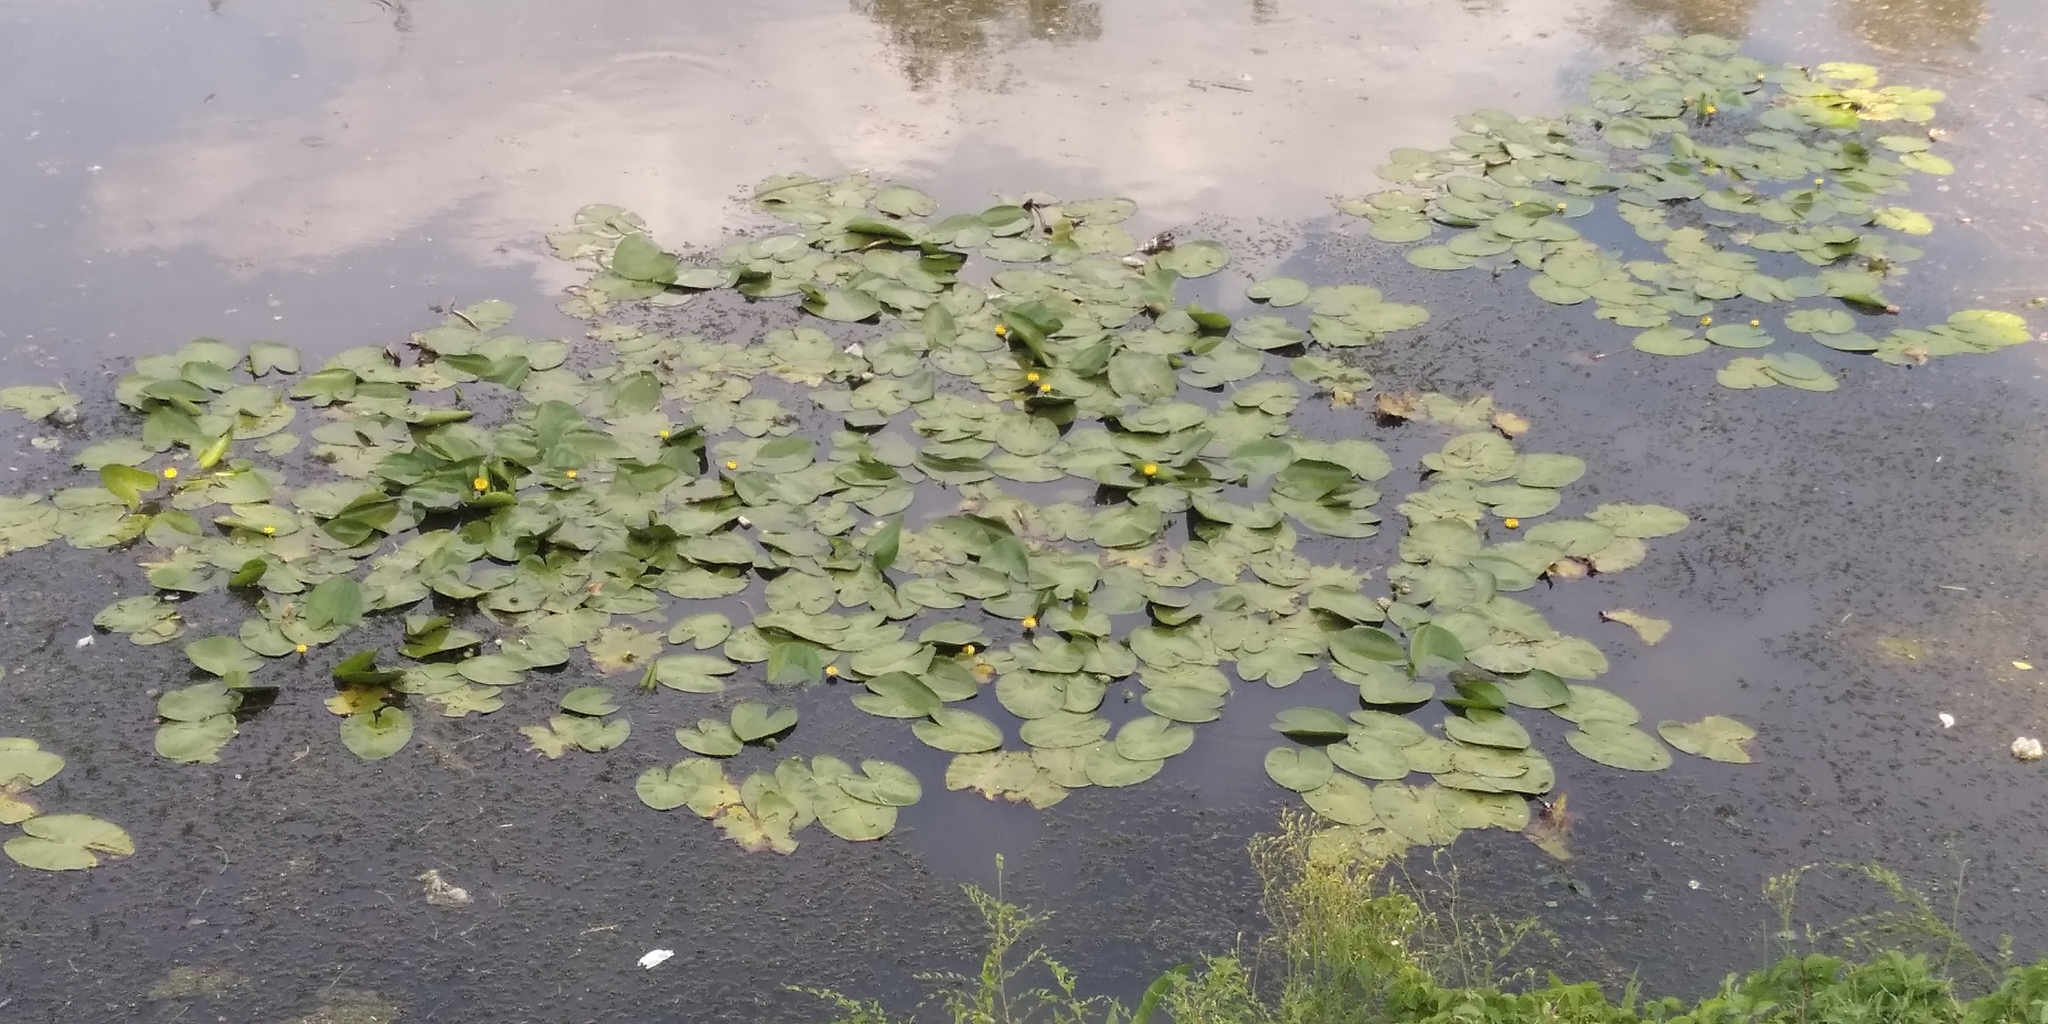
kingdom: Plantae
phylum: Tracheophyta
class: Magnoliopsida
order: Nymphaeales
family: Nymphaeaceae
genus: Nuphar
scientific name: Nuphar lutea
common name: Yellow water-lily
